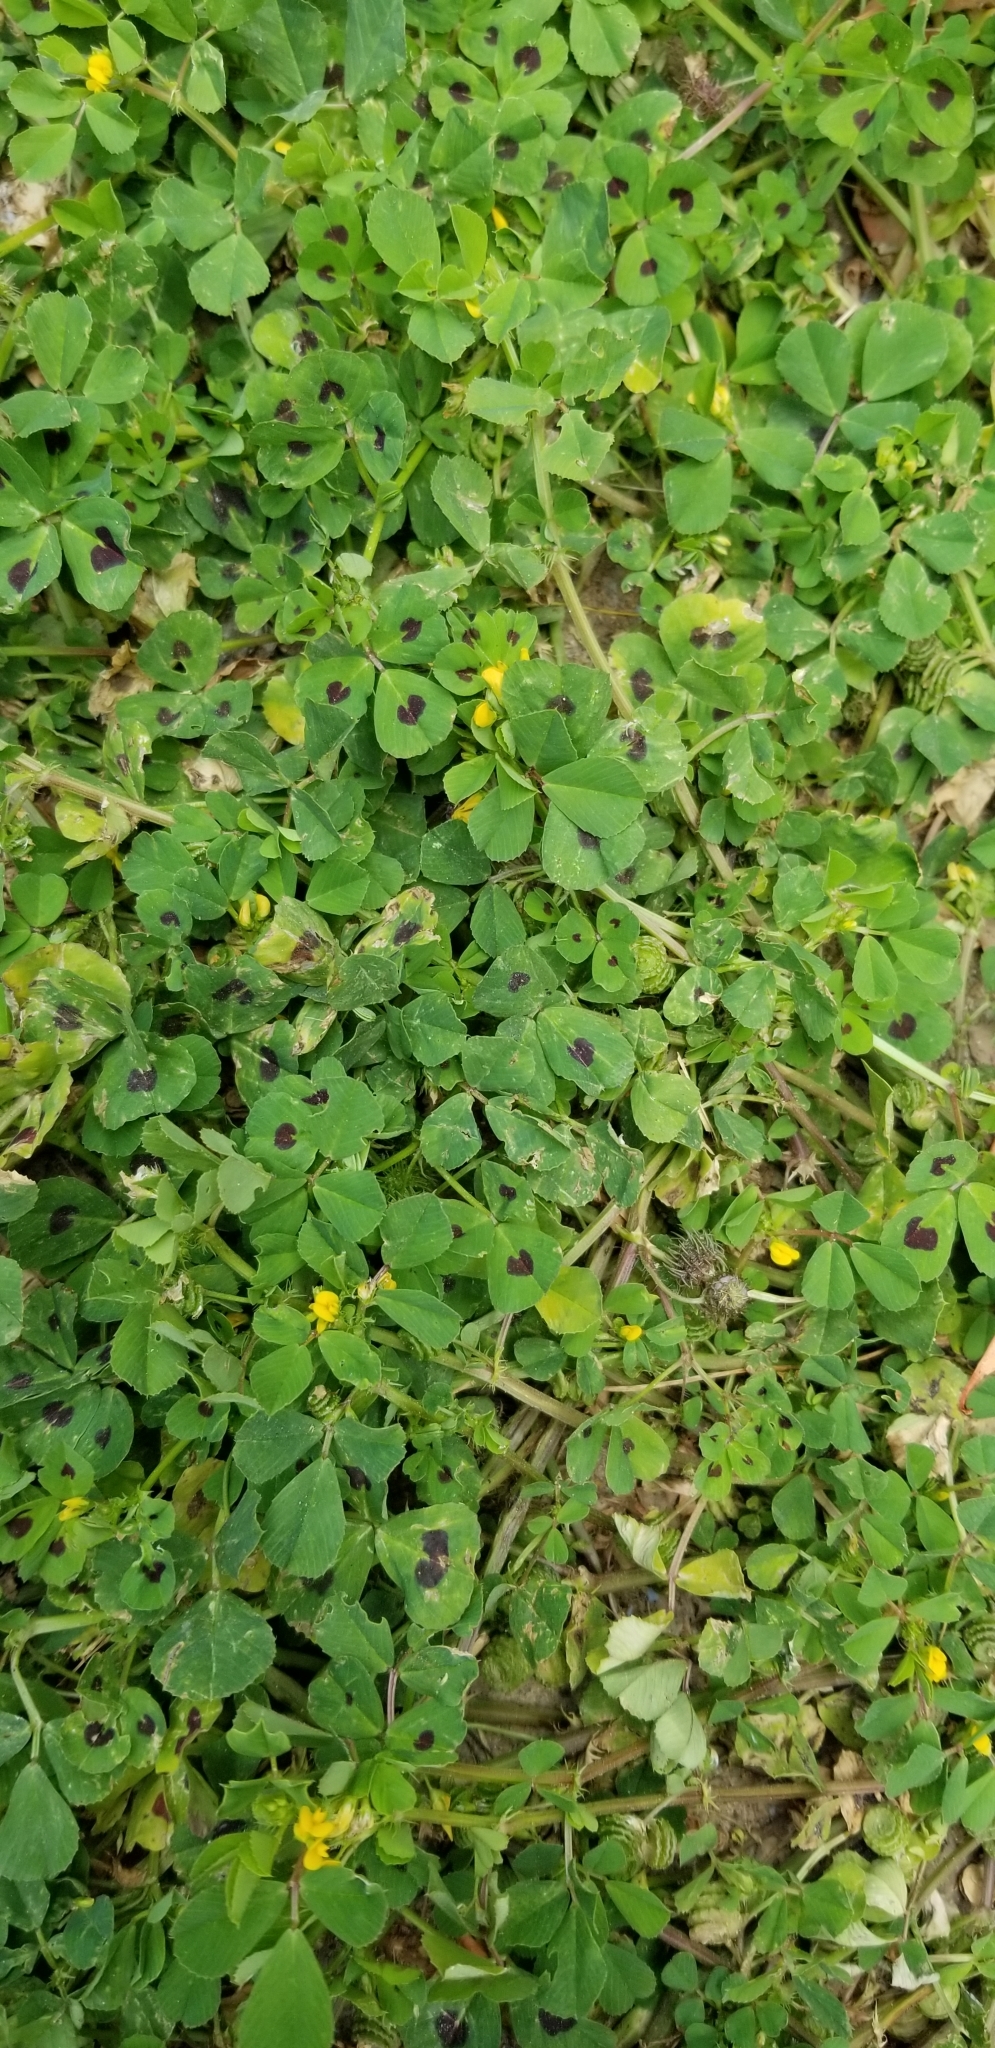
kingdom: Plantae
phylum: Tracheophyta
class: Magnoliopsida
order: Fabales
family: Fabaceae
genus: Medicago
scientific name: Medicago arabica
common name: Spotted medick
